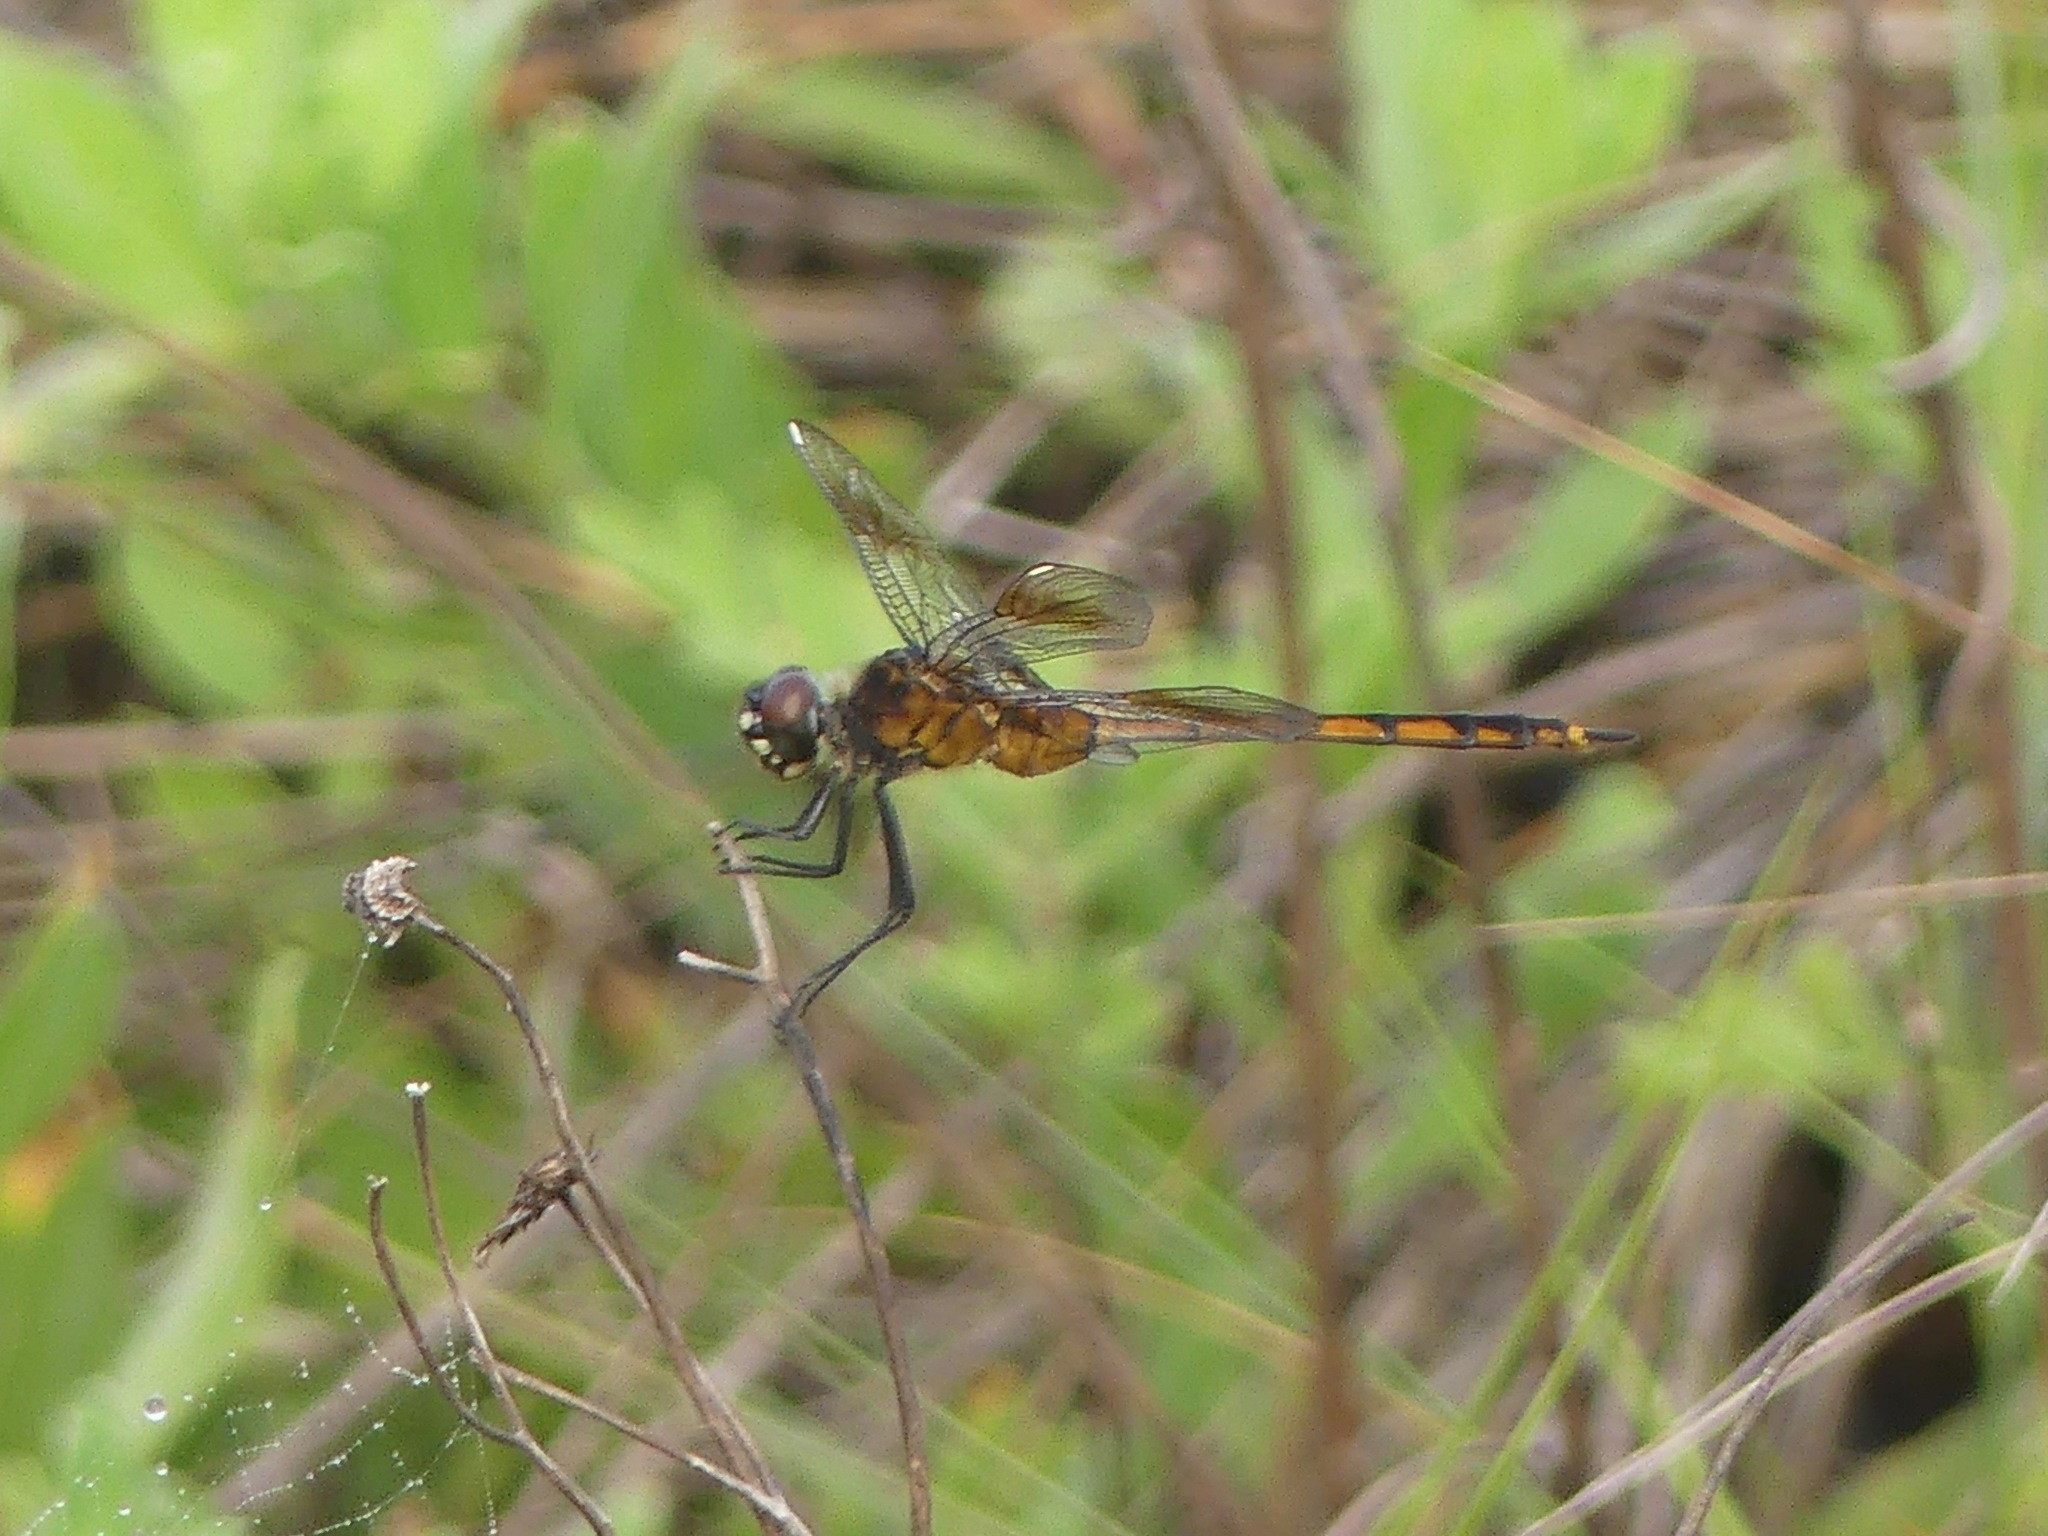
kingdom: Animalia
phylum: Arthropoda
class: Insecta
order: Odonata
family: Libellulidae
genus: Brachymesia
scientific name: Brachymesia gravida
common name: Four-spotted pennant
